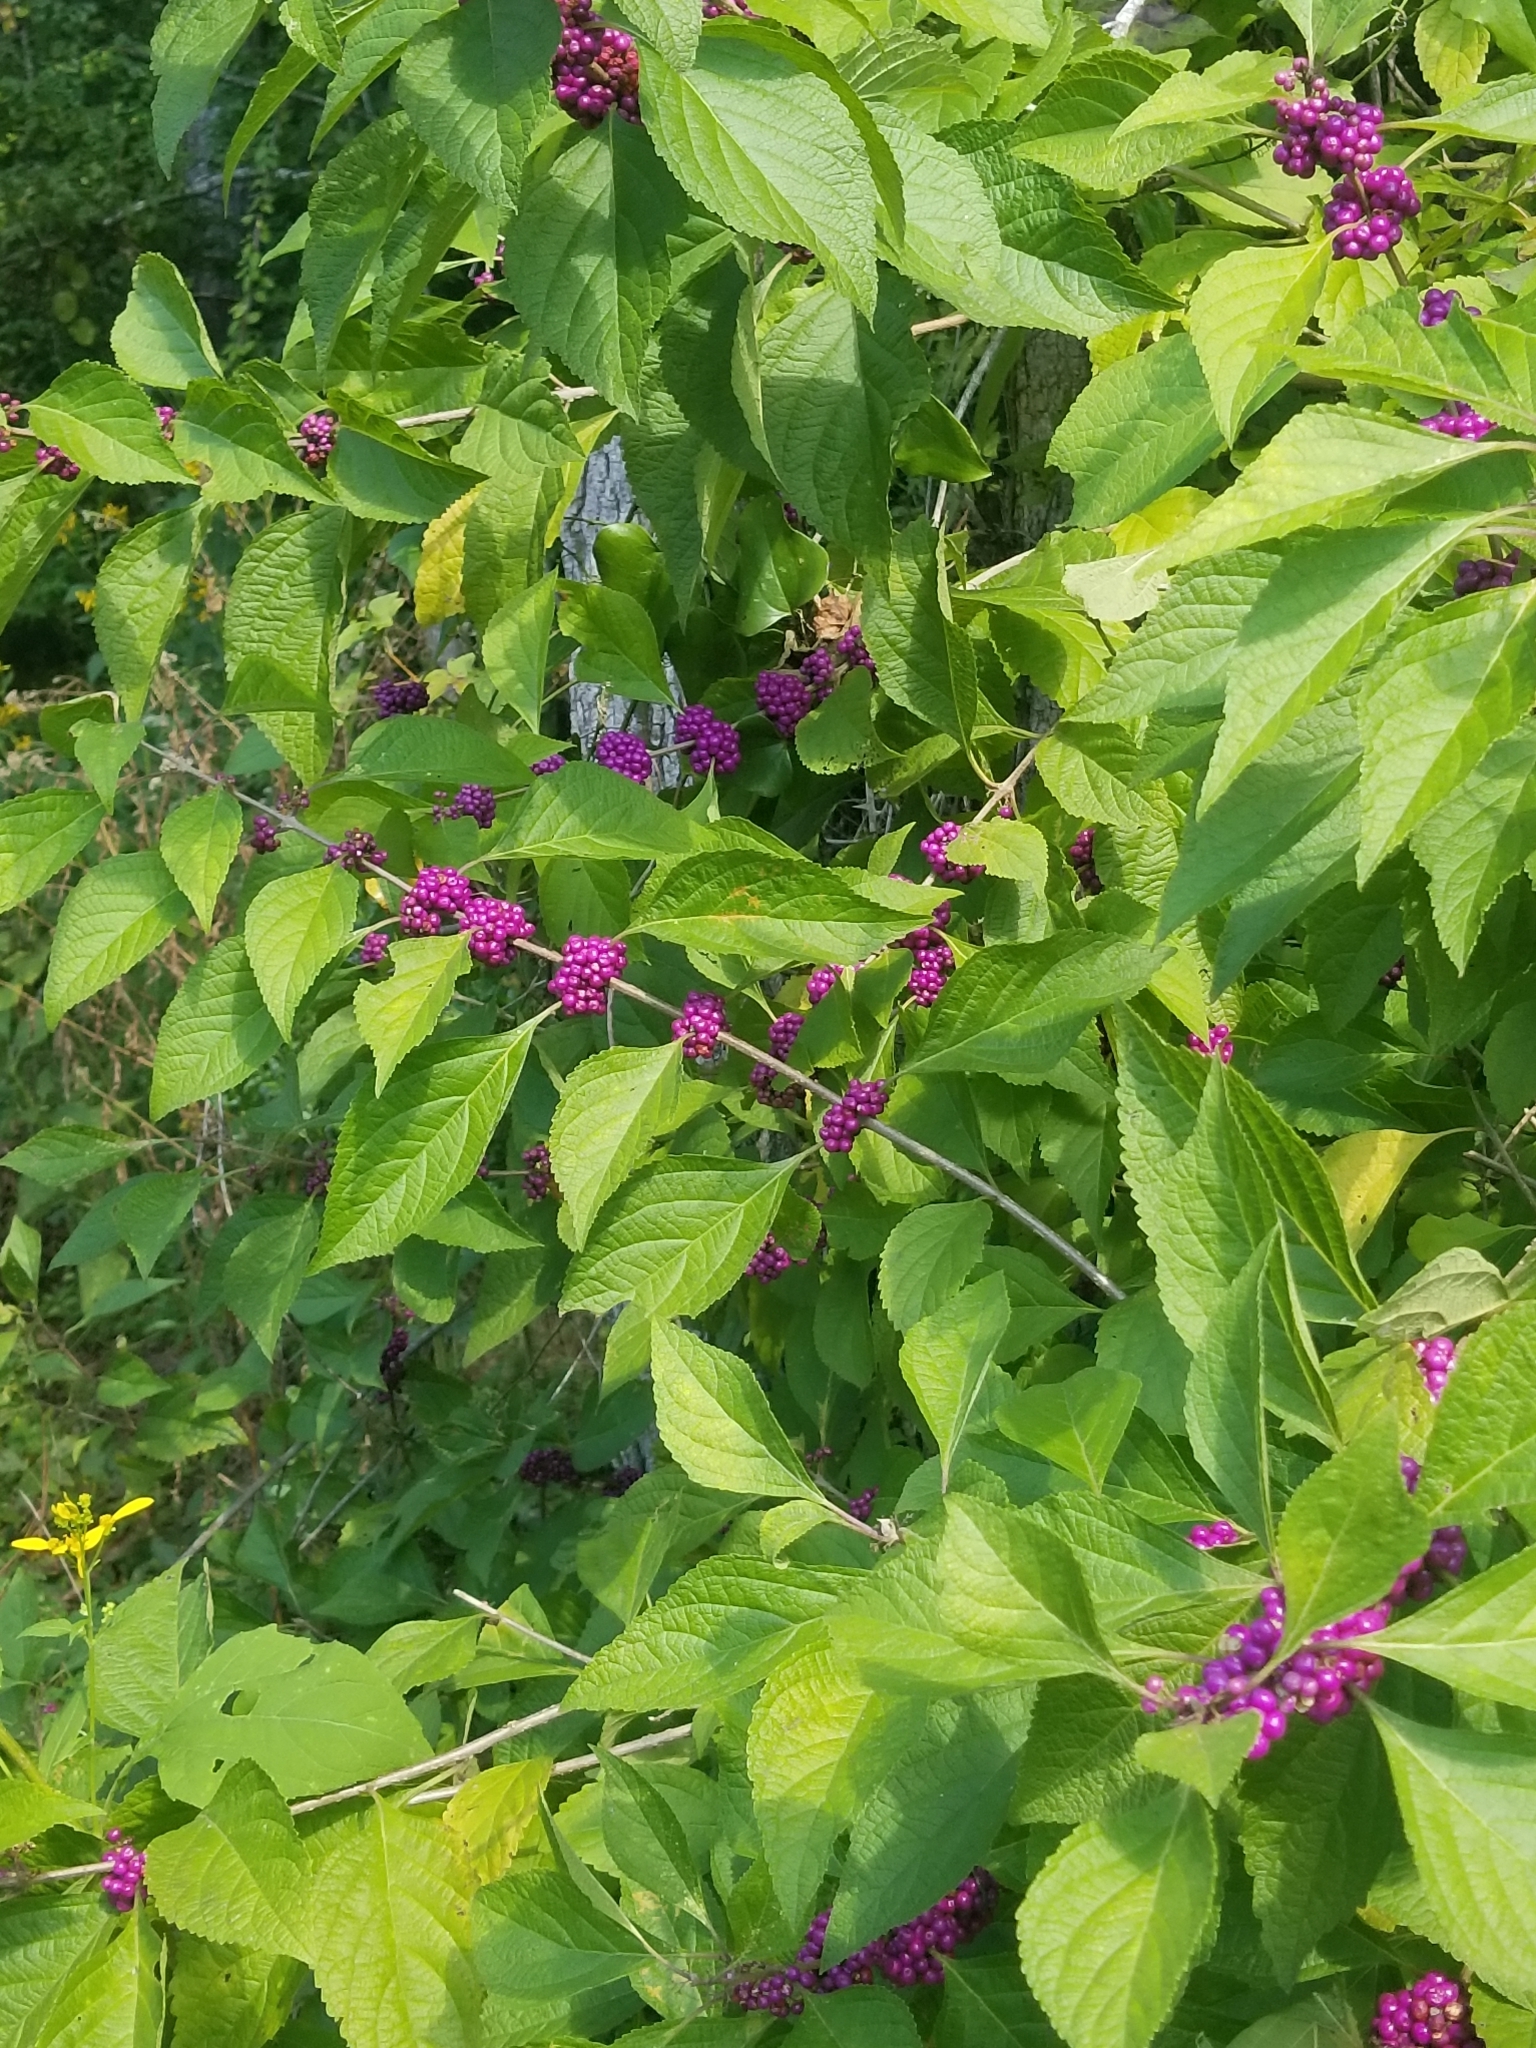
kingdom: Plantae
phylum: Tracheophyta
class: Magnoliopsida
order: Lamiales
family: Lamiaceae
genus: Callicarpa
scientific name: Callicarpa americana
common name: American beautyberry
